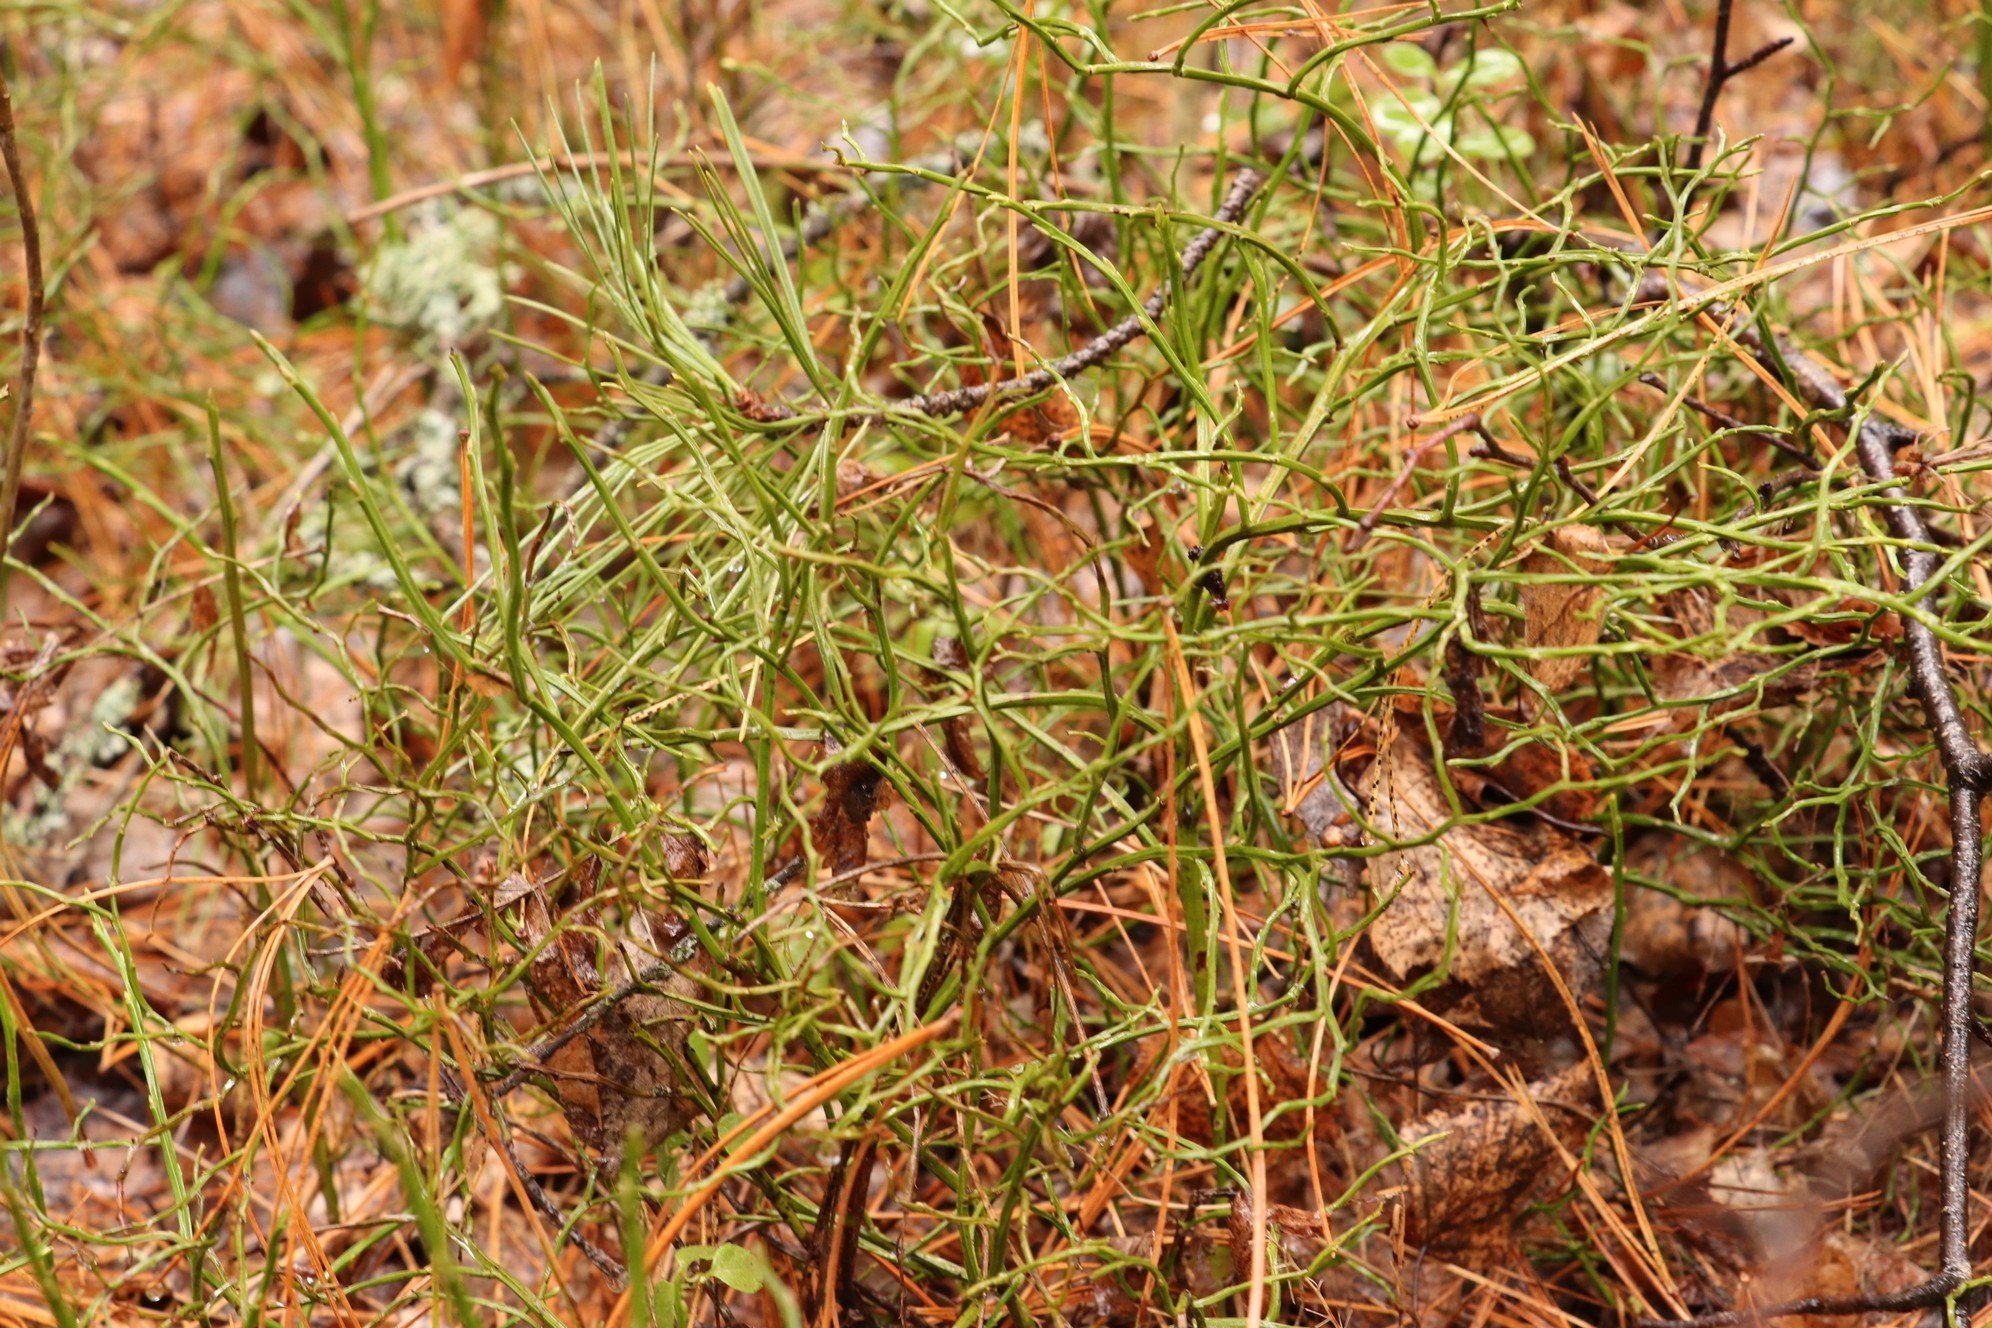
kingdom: Plantae
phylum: Tracheophyta
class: Magnoliopsida
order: Ericales
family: Ericaceae
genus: Vaccinium
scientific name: Vaccinium uliginosum
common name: Bog bilberry
